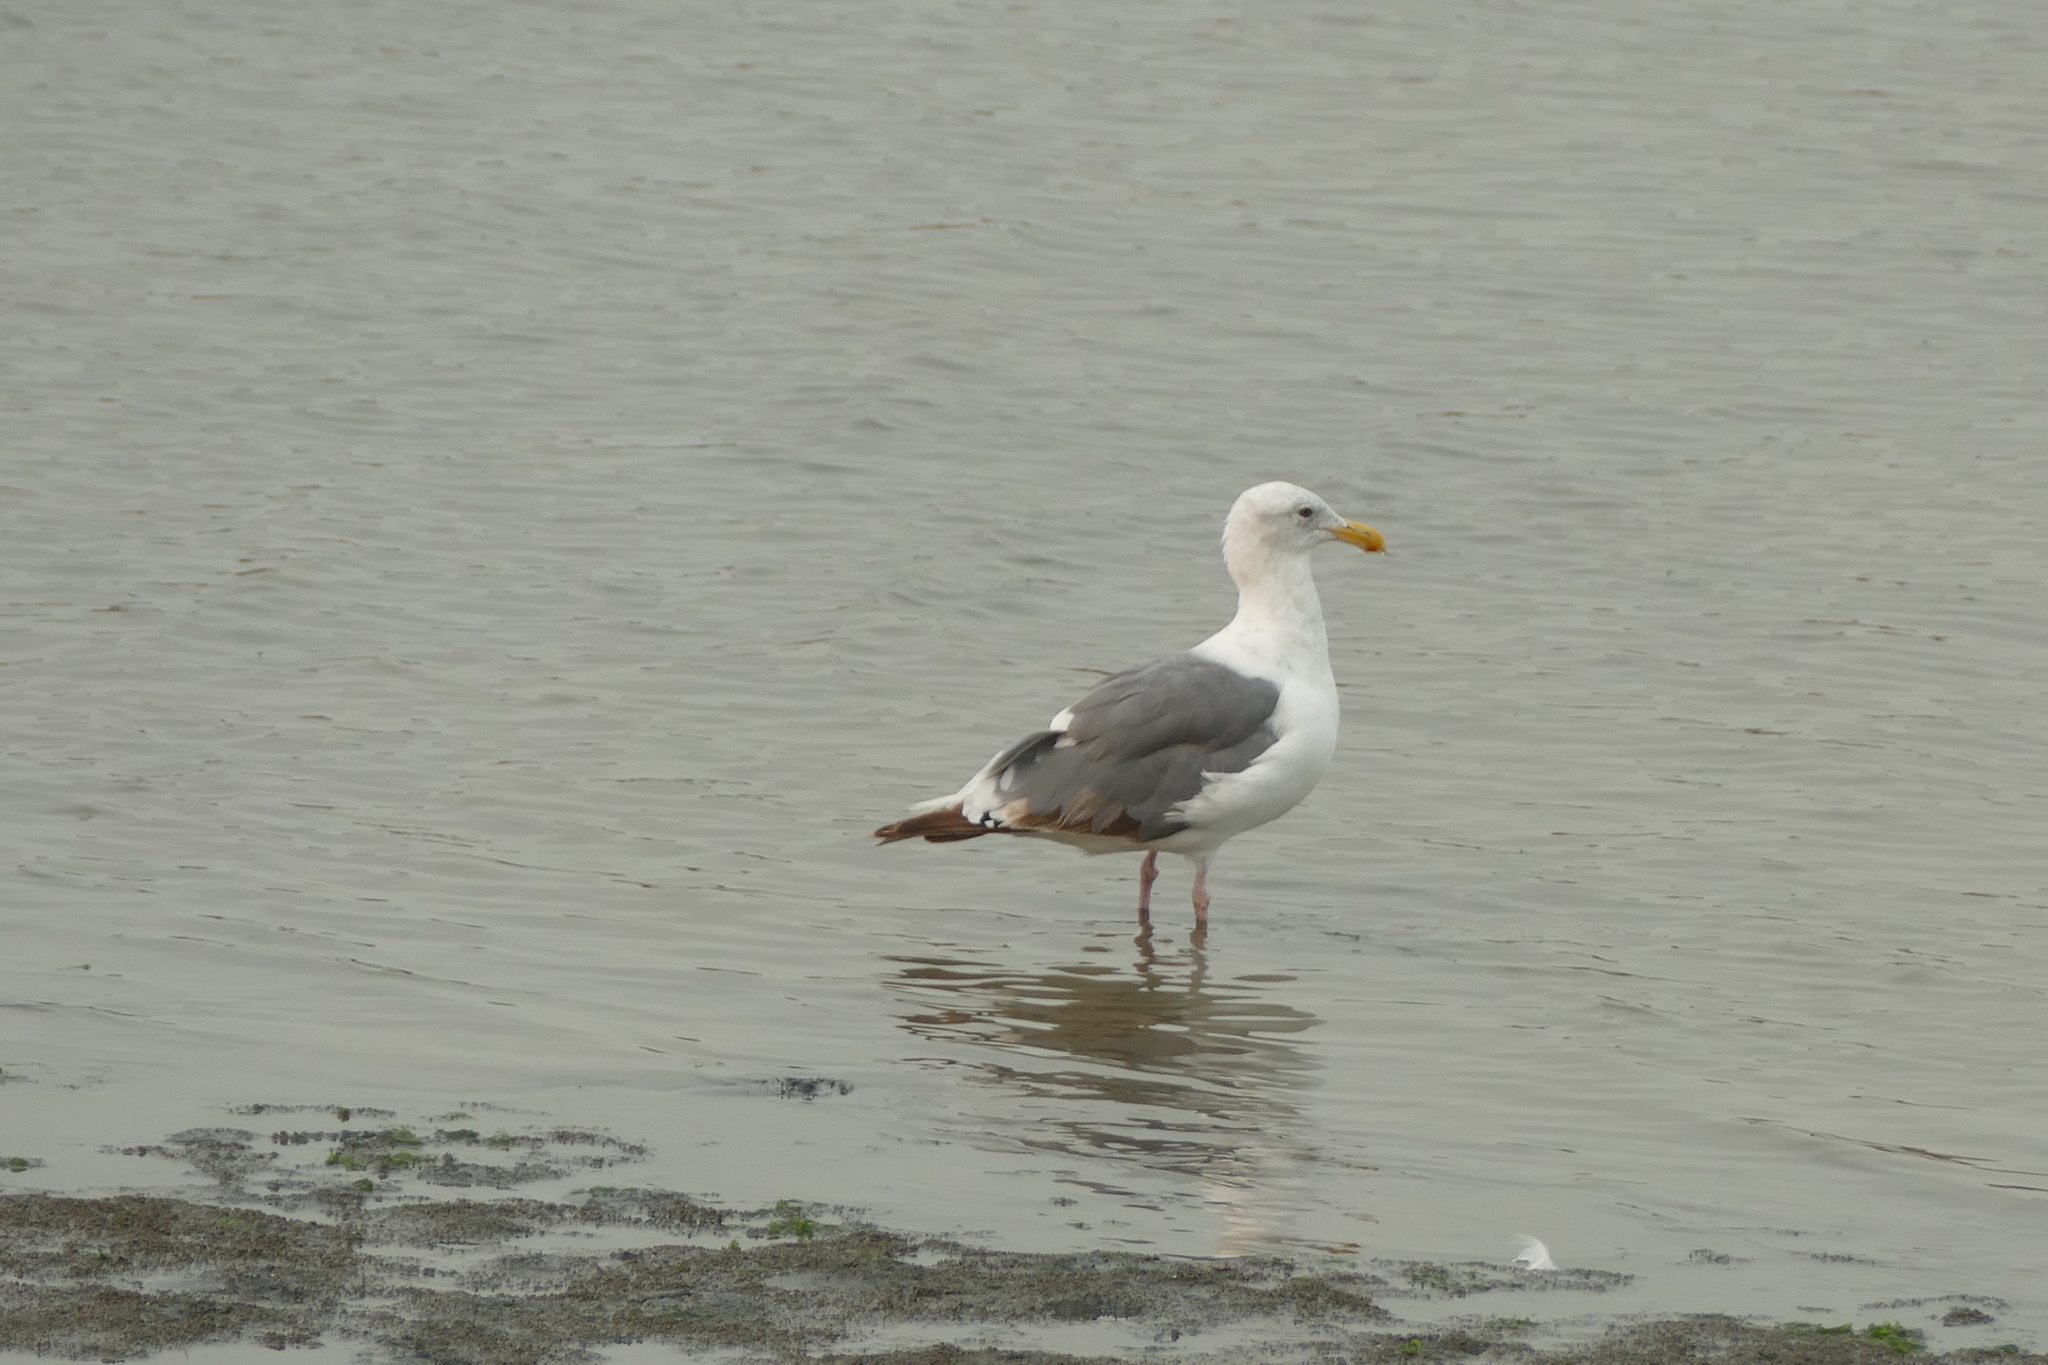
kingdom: Animalia
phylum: Chordata
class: Aves
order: Charadriiformes
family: Laridae
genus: Larus
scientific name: Larus occidentalis
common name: Western gull
